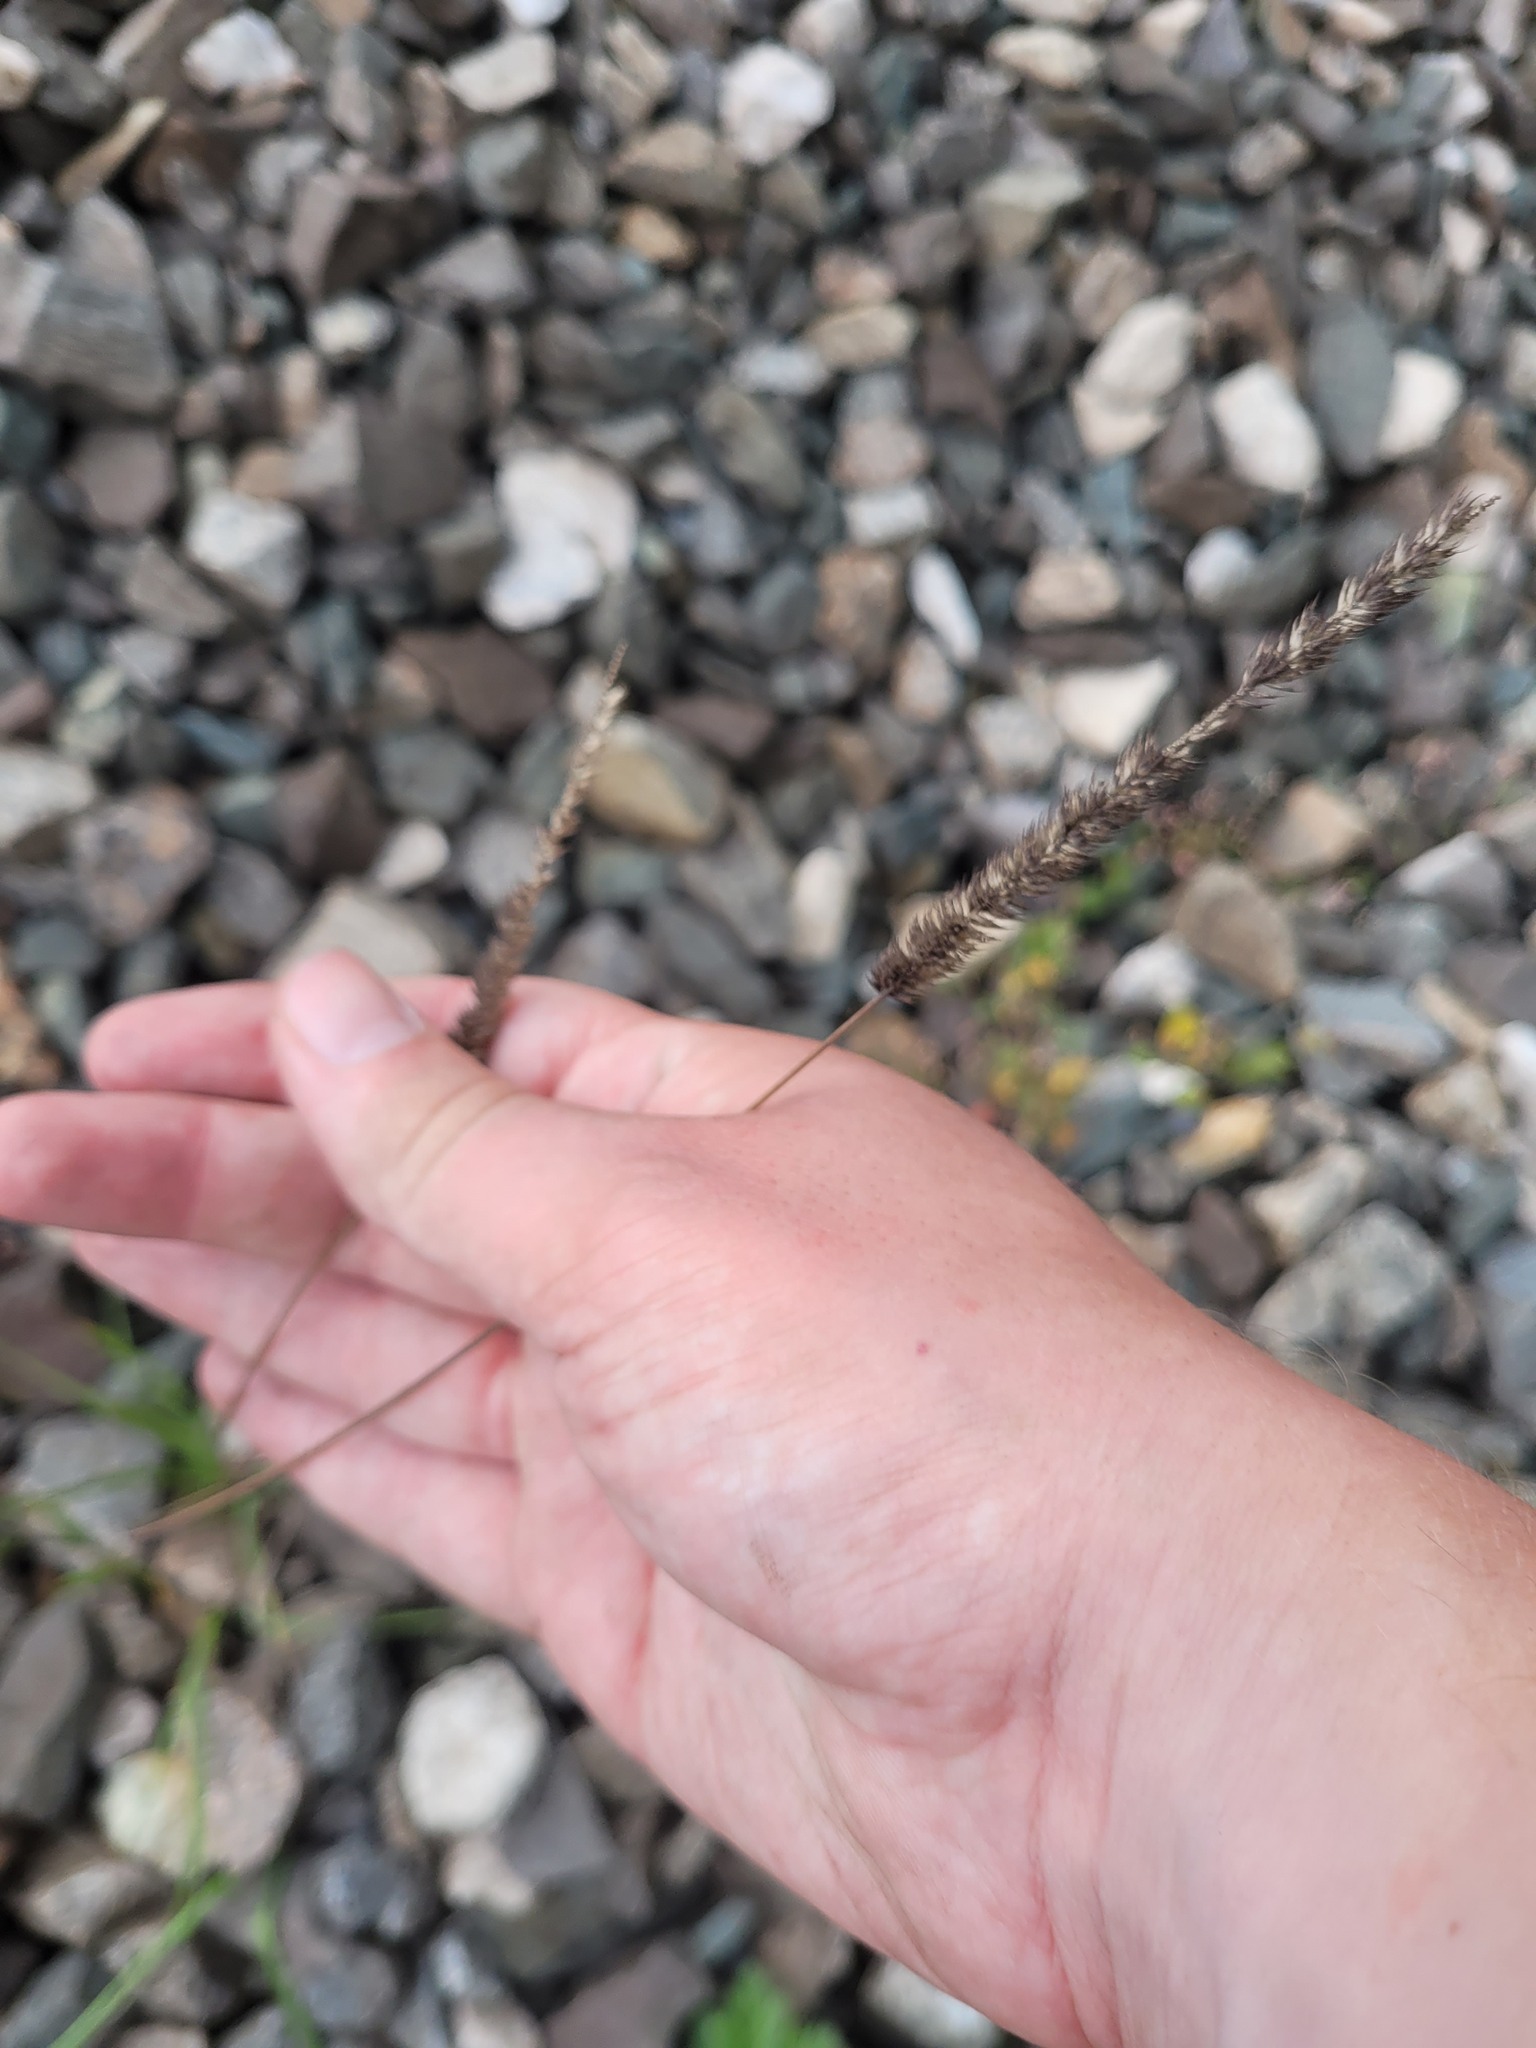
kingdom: Plantae
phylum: Tracheophyta
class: Liliopsida
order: Poales
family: Poaceae
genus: Phleum
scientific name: Phleum pratense
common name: Timothy grass
